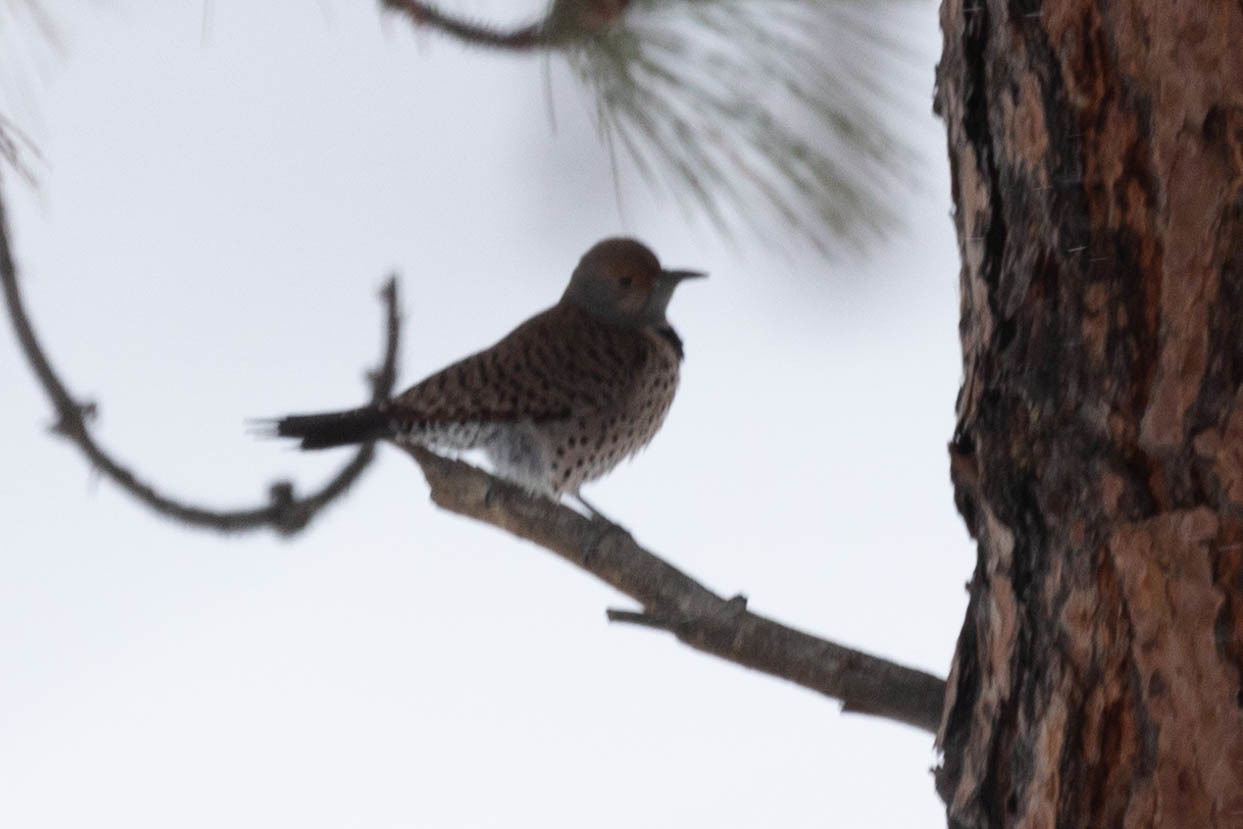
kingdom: Animalia
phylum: Chordata
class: Aves
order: Piciformes
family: Picidae
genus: Colaptes
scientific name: Colaptes auratus
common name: Northern flicker
